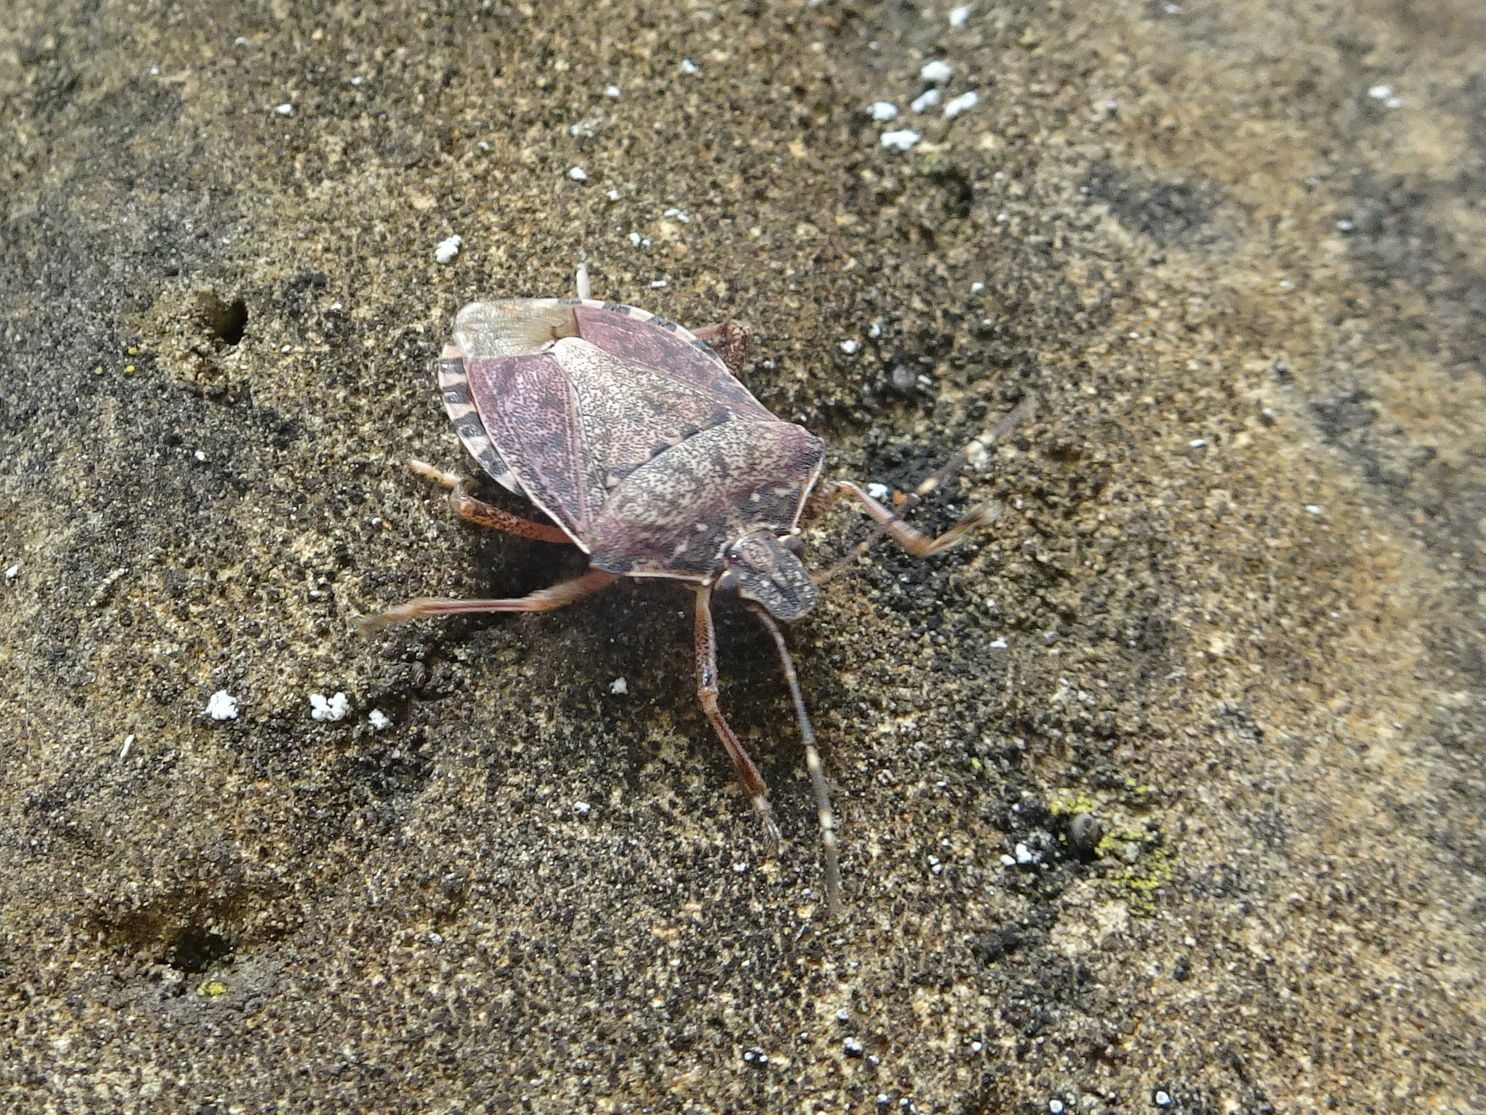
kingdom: Animalia
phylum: Arthropoda
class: Insecta
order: Hemiptera
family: Pentatomidae
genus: Halyomorpha
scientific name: Halyomorpha halys
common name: Brown marmorated stink bug
